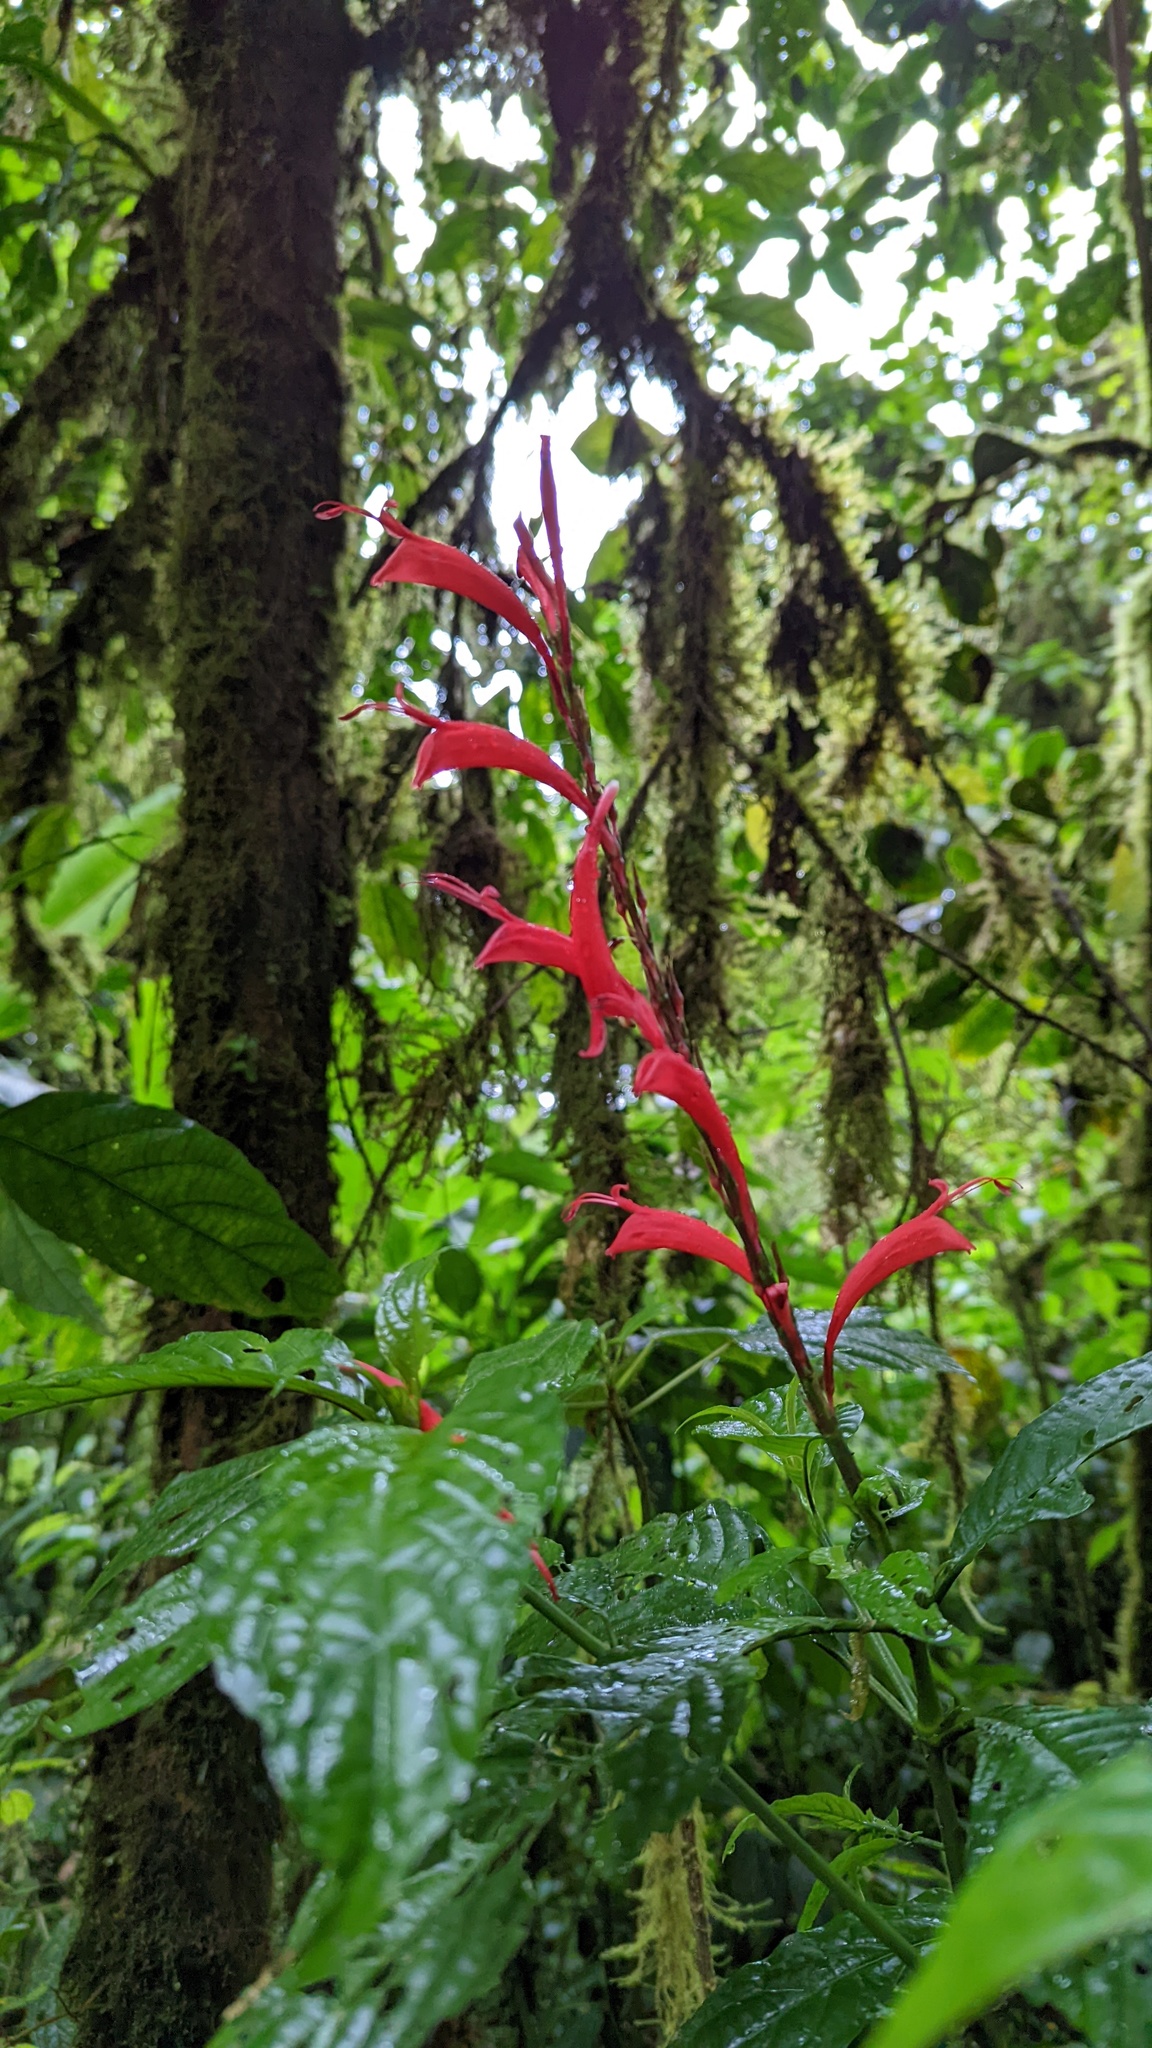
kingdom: Plantae
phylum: Tracheophyta
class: Magnoliopsida
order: Lamiales
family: Acanthaceae
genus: Stenostephanus
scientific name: Stenostephanus leiorhachis
